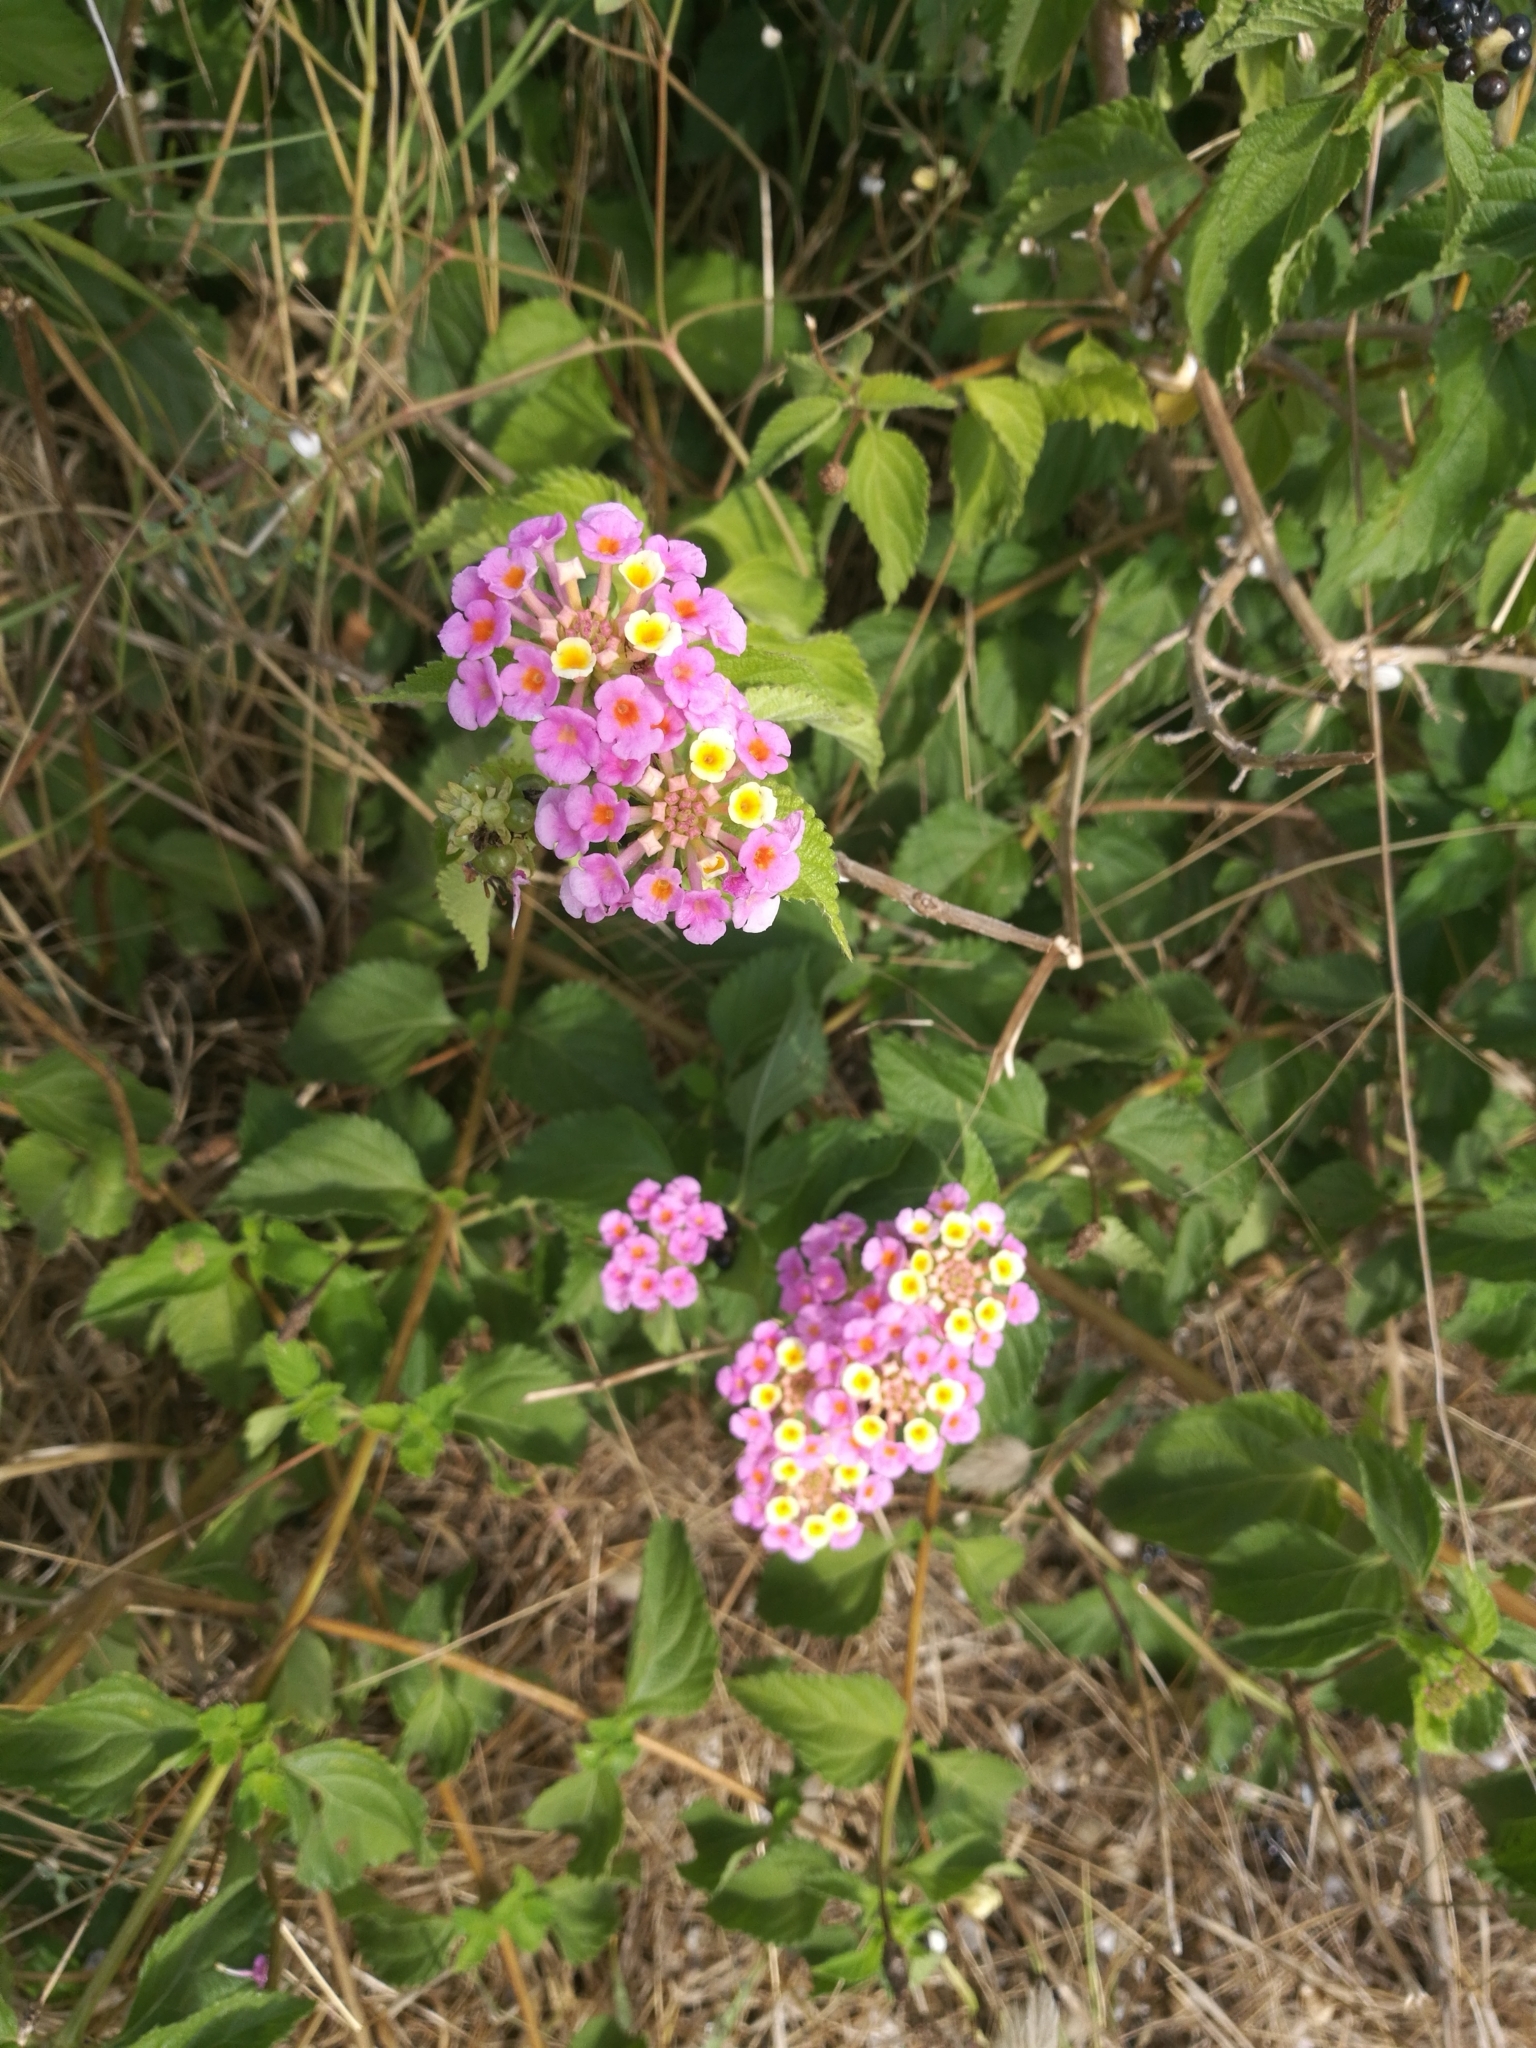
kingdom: Plantae
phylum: Tracheophyta
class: Magnoliopsida
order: Lamiales
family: Verbenaceae
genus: Lantana
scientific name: Lantana camara
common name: Lantana
